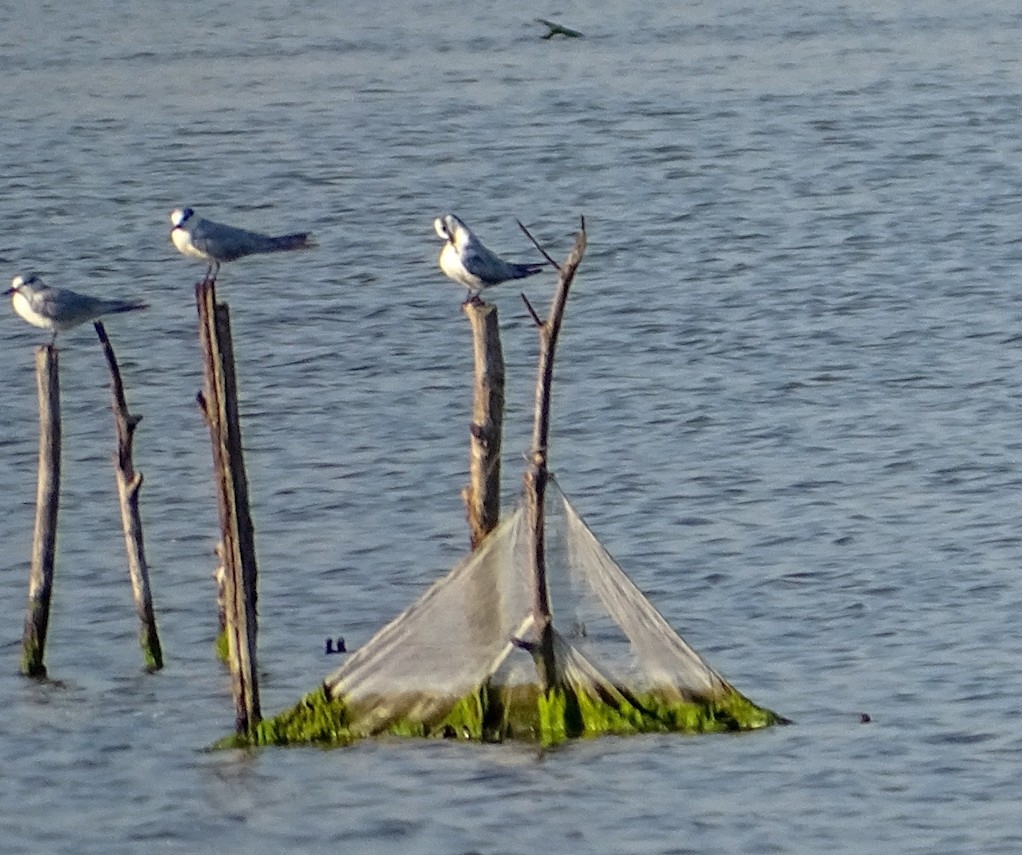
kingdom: Animalia
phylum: Chordata
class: Aves
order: Charadriiformes
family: Laridae
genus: Chlidonias
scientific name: Chlidonias hybrida
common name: Whiskered tern
